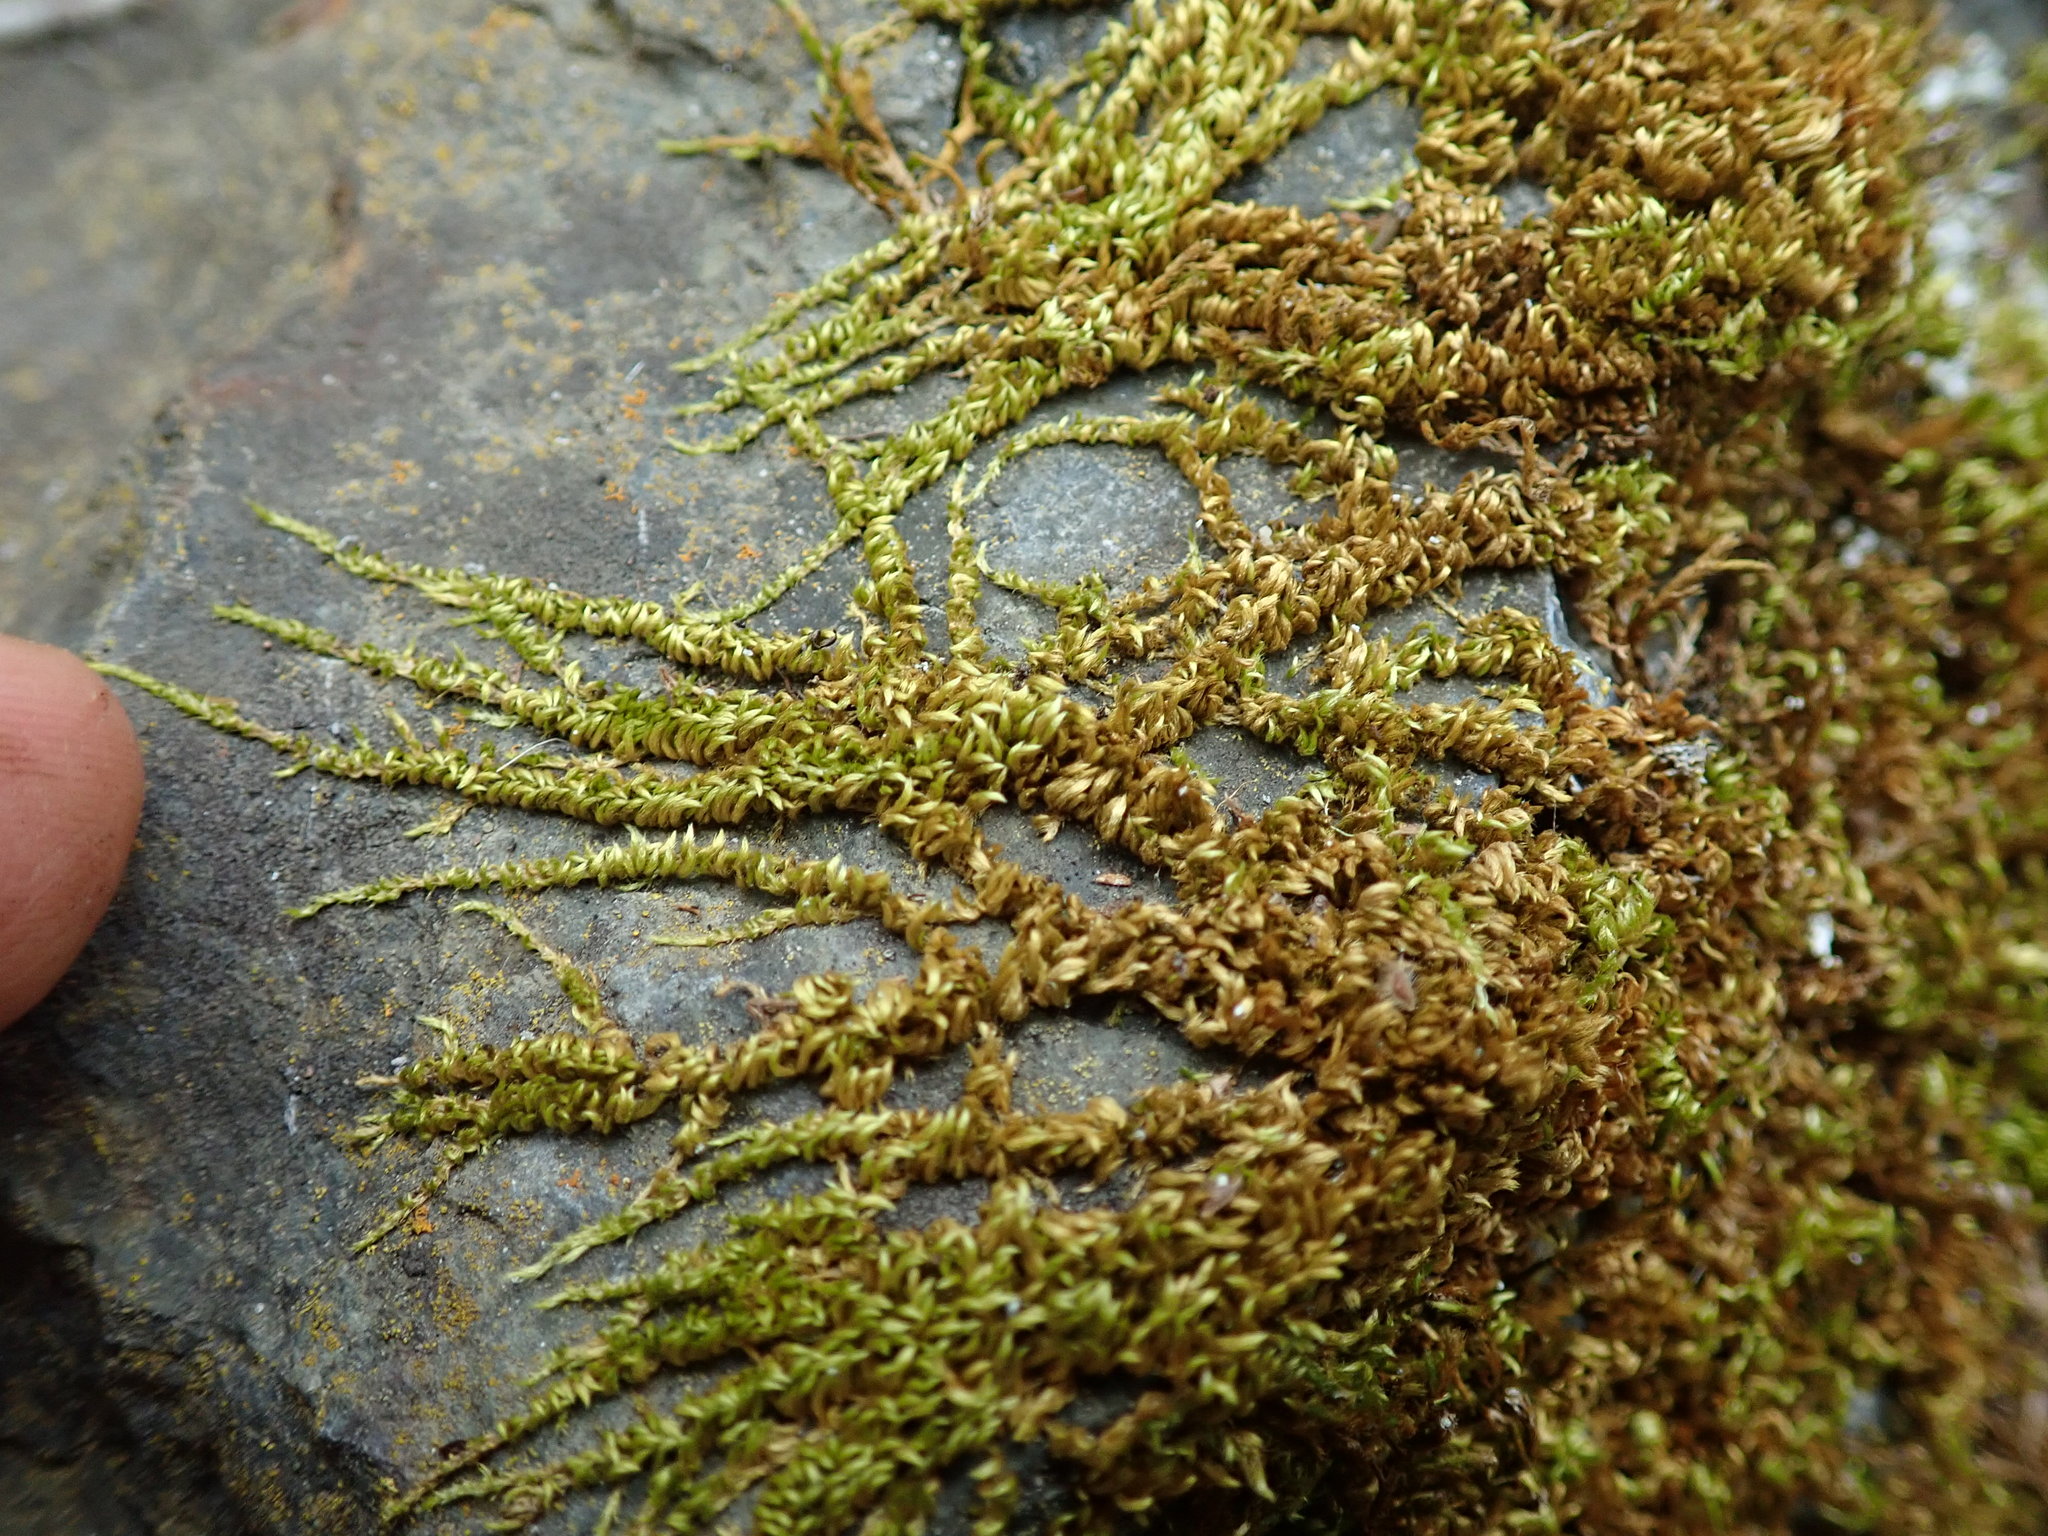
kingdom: Plantae
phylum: Bryophyta
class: Bryopsida
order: Hypnales
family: Brachytheciaceae
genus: Homalothecium
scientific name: Homalothecium nuttallii
